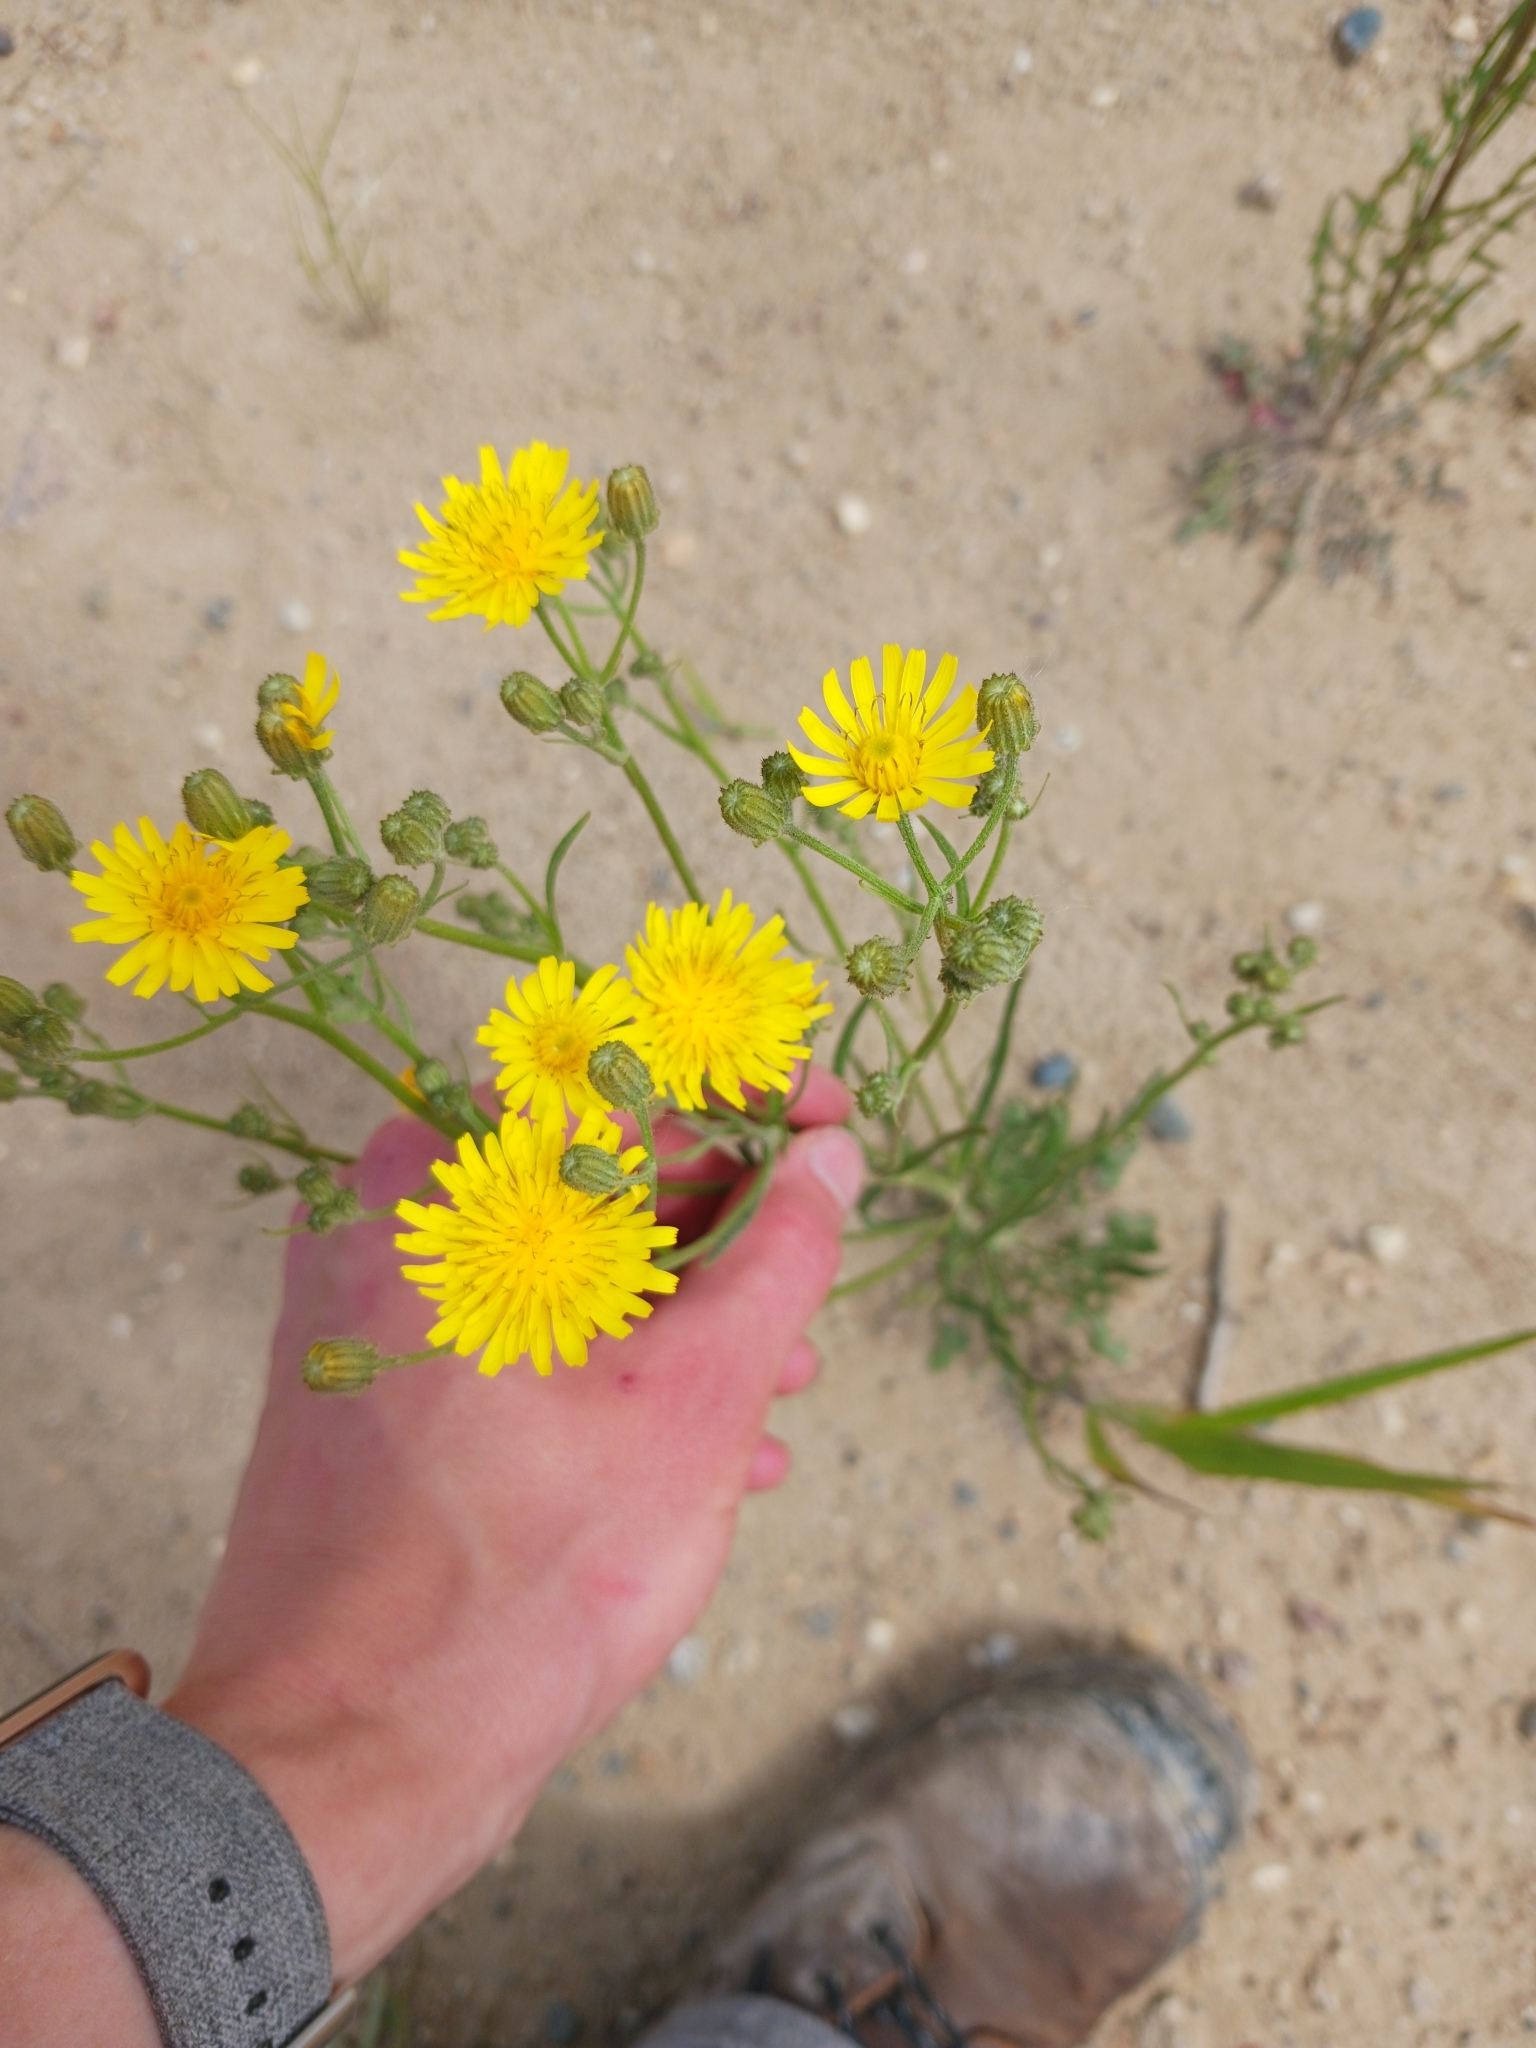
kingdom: Plantae
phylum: Tracheophyta
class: Magnoliopsida
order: Asterales
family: Asteraceae
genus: Crepis
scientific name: Crepis tectorum
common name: Narrow-leaved hawk's-beard
